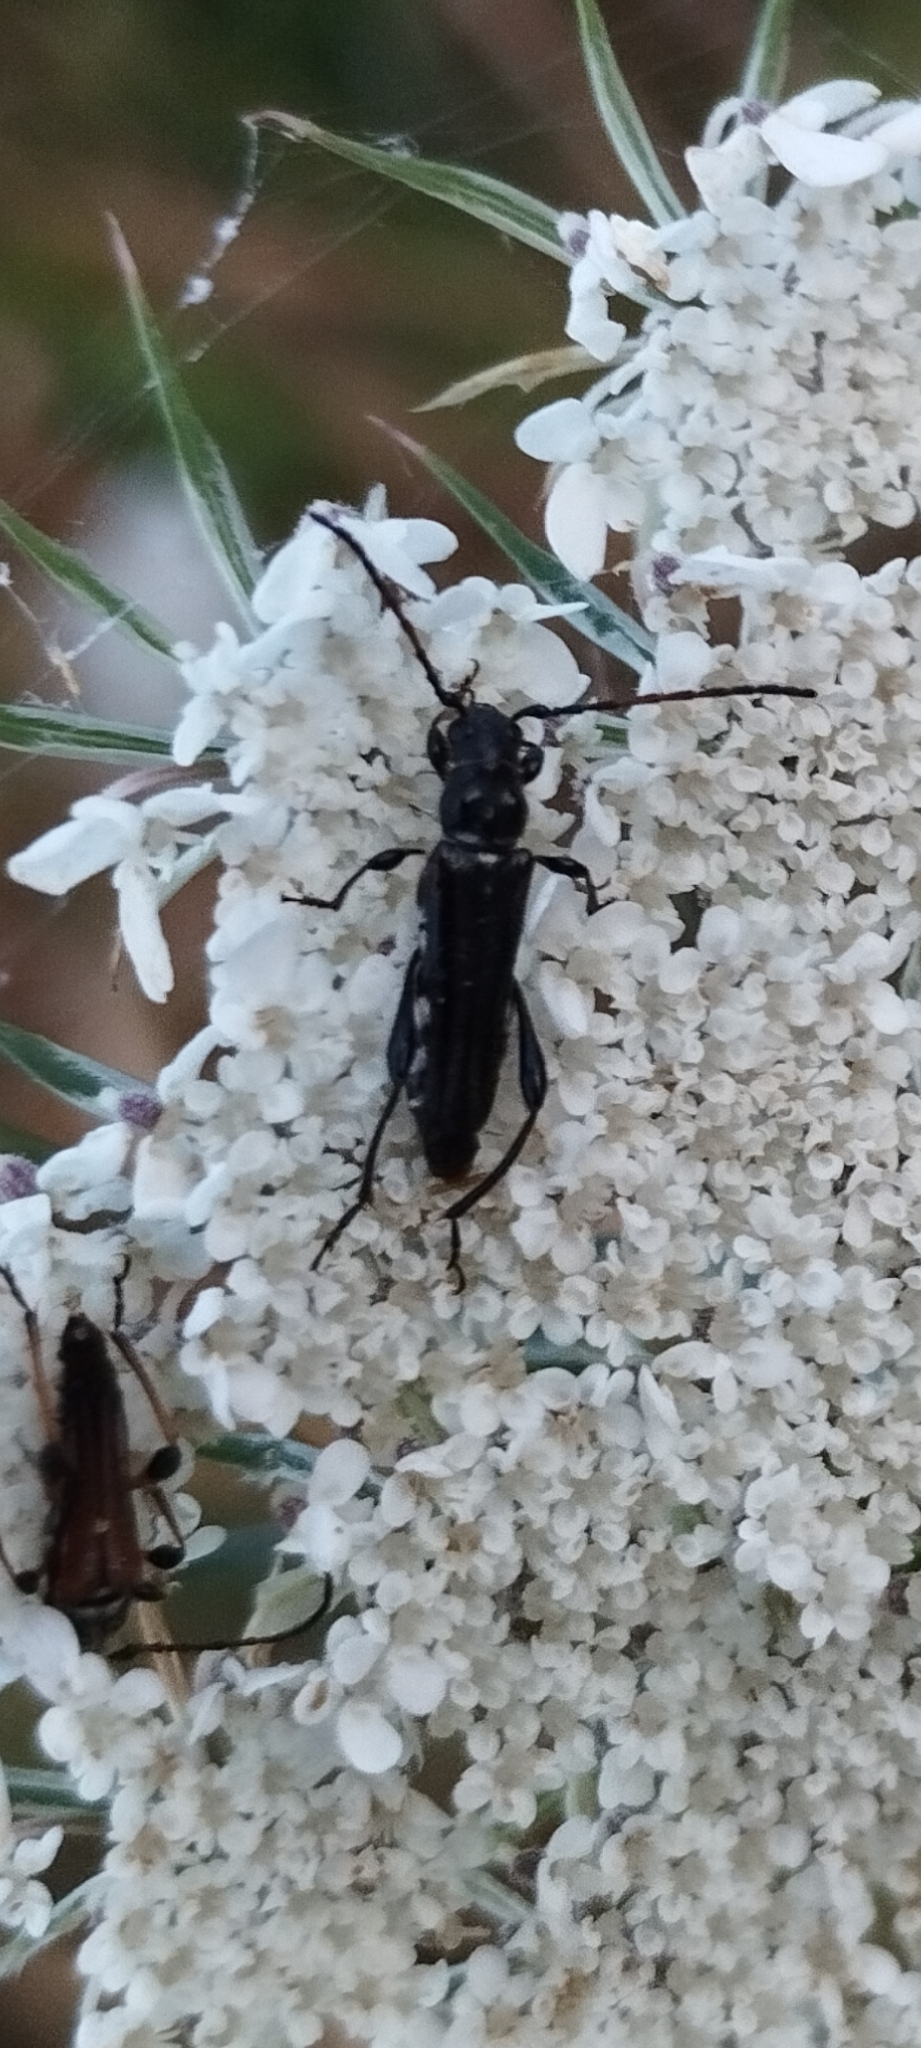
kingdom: Animalia
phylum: Arthropoda
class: Insecta
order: Coleoptera
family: Cerambycidae
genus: Stenopterus
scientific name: Stenopterus ater
